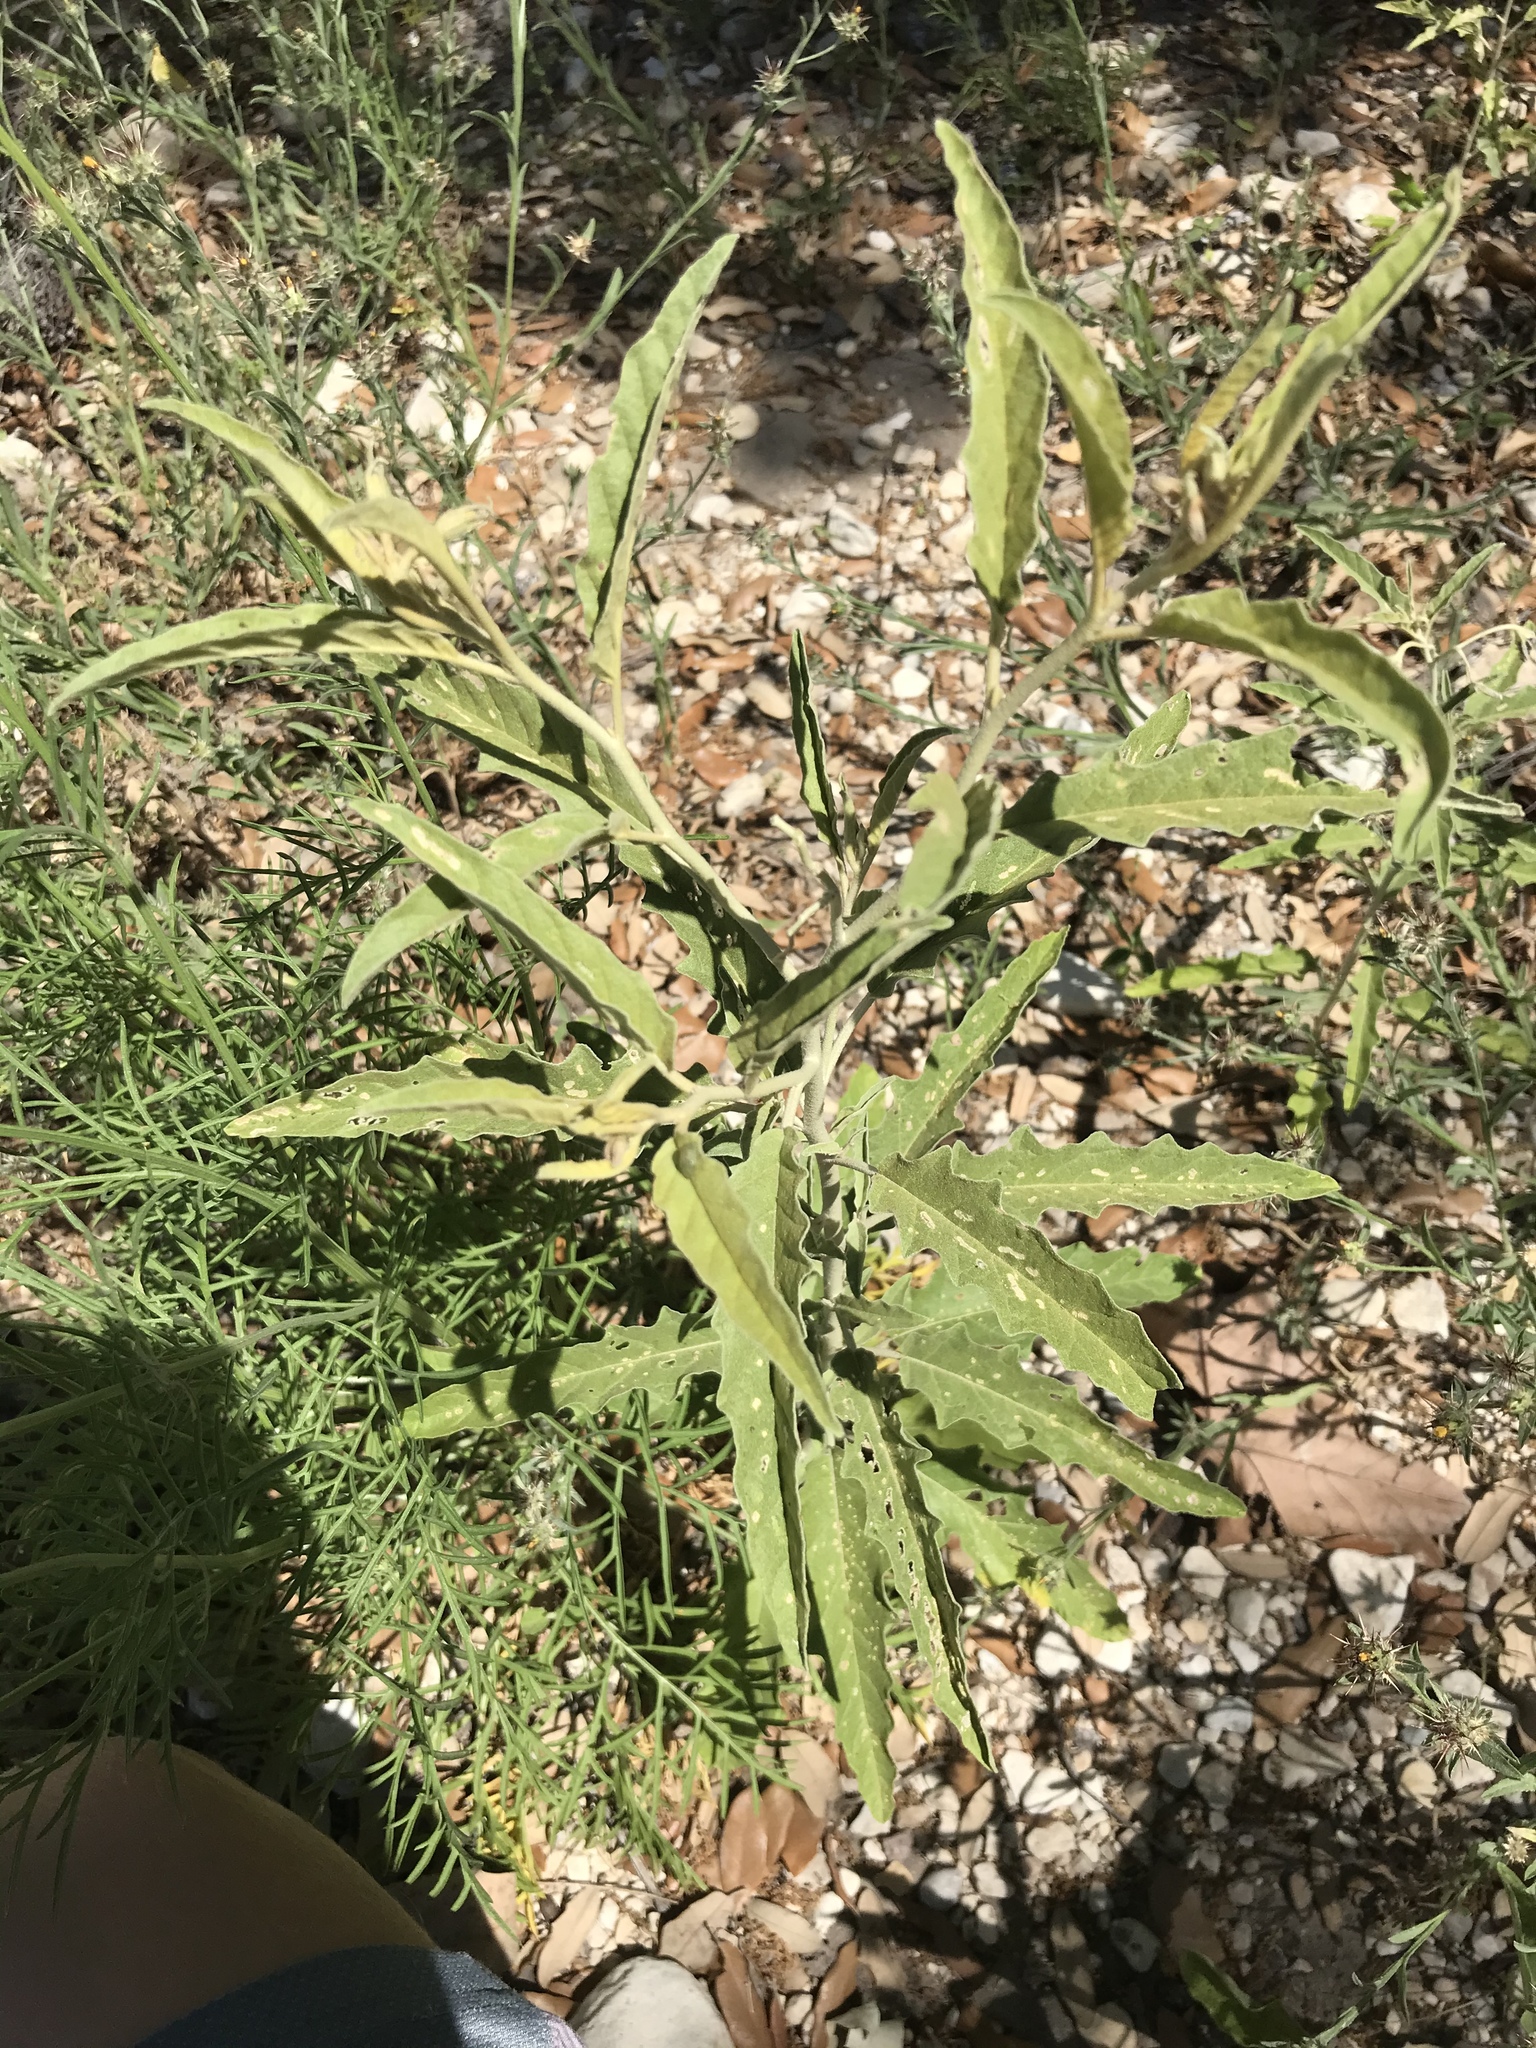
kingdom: Plantae
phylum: Tracheophyta
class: Magnoliopsida
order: Solanales
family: Solanaceae
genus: Solanum
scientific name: Solanum elaeagnifolium
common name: Silverleaf nightshade
